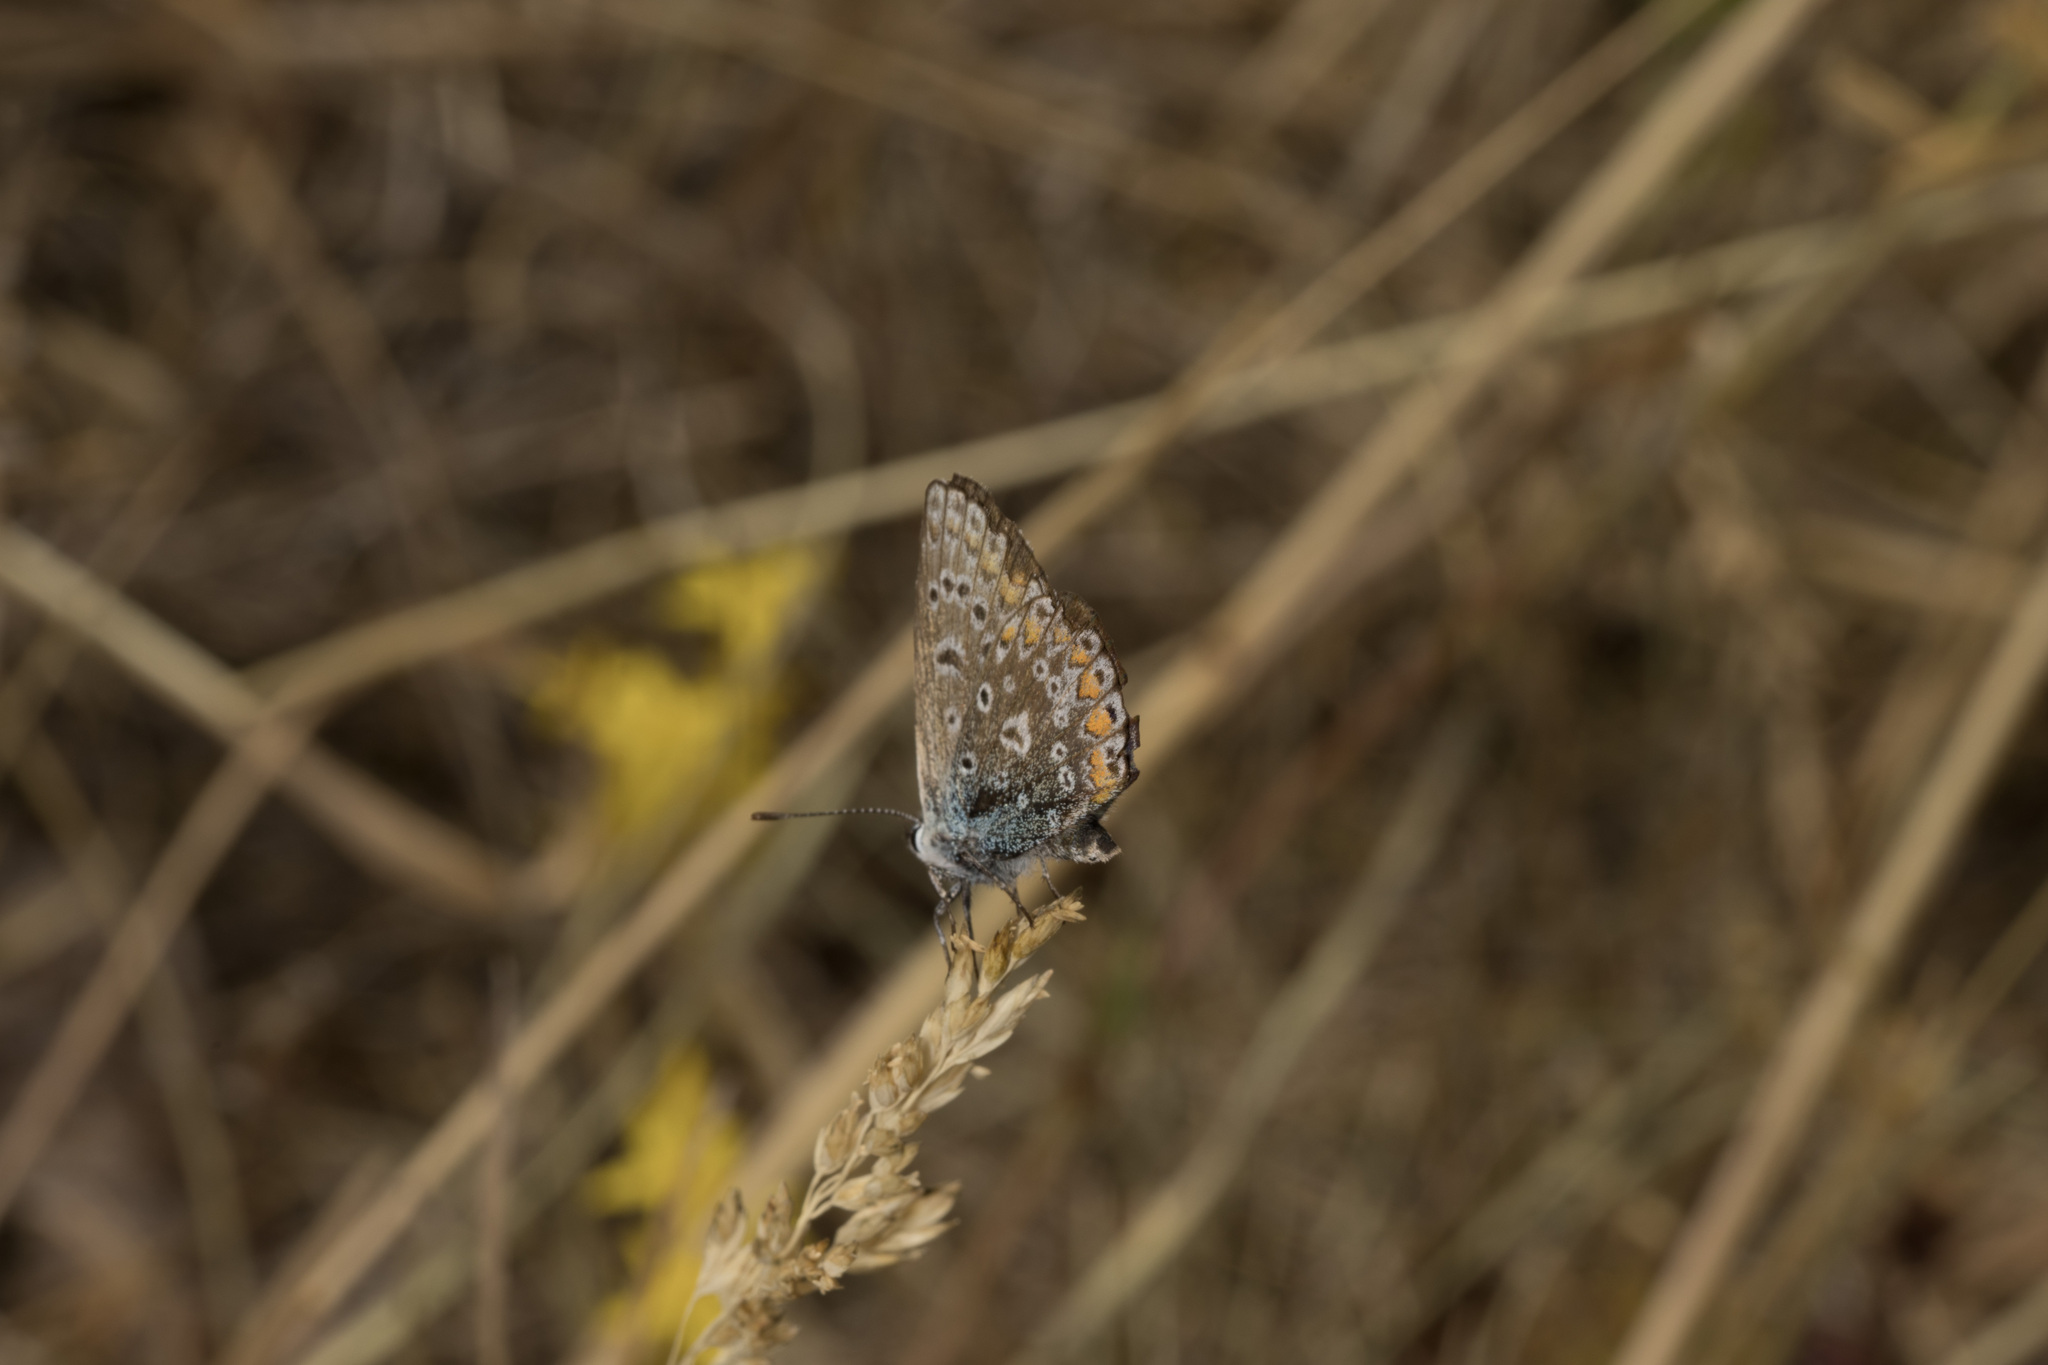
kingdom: Animalia
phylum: Arthropoda
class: Insecta
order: Lepidoptera
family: Lycaenidae
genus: Polyommatus
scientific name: Polyommatus icarus
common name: Common blue
